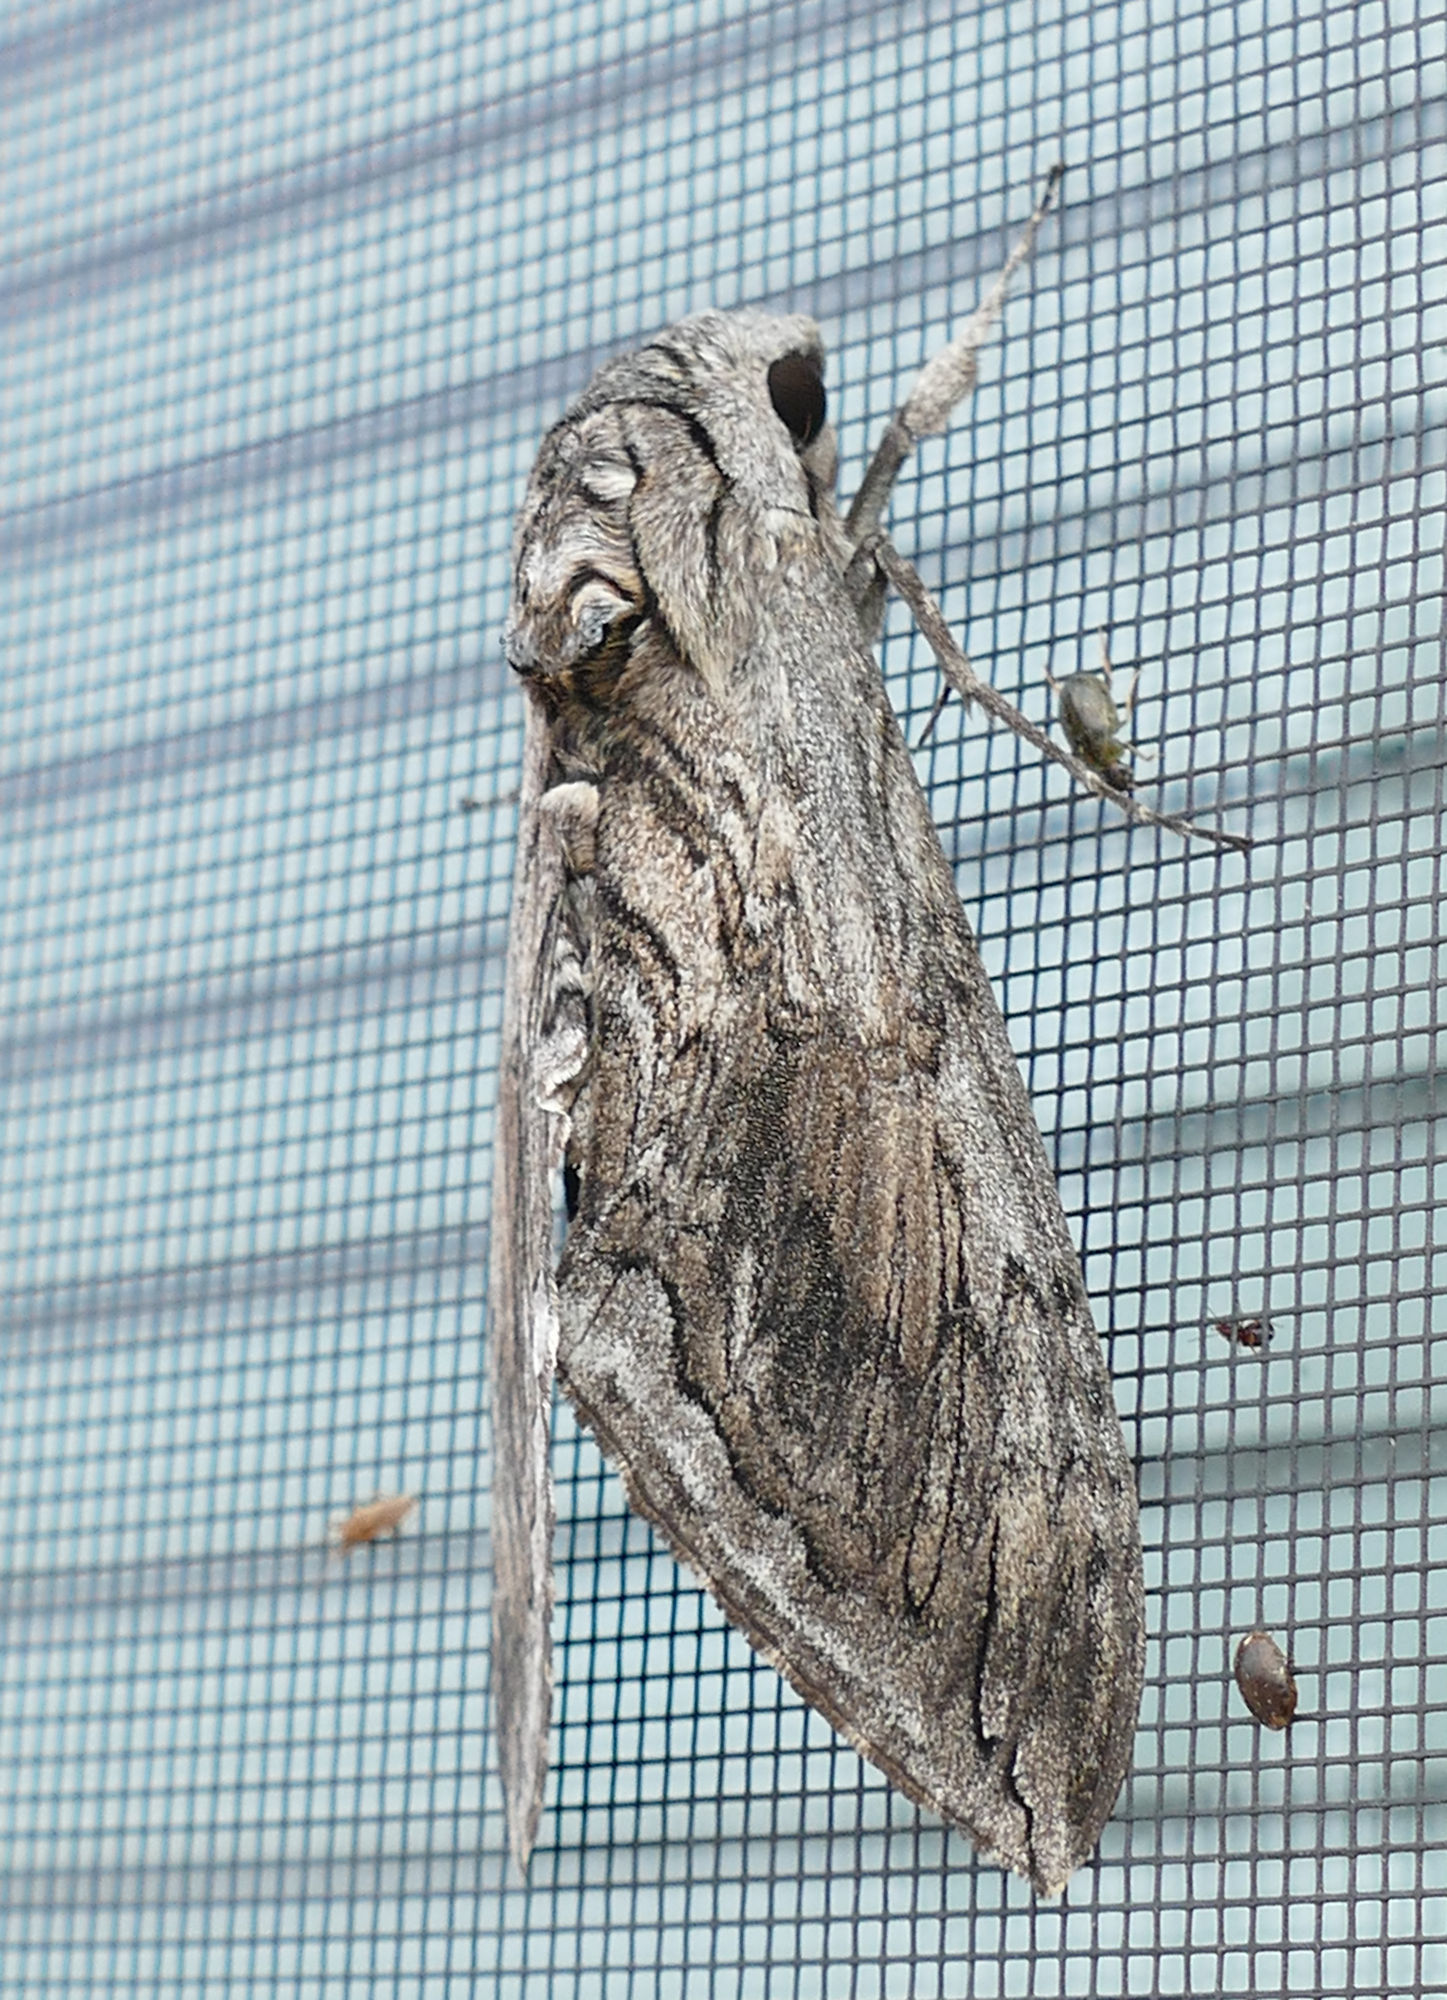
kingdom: Animalia
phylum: Arthropoda
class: Insecta
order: Lepidoptera
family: Sphingidae
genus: Manduca
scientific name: Manduca quinquemaculatus
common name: Five-spotted hawk-moth
